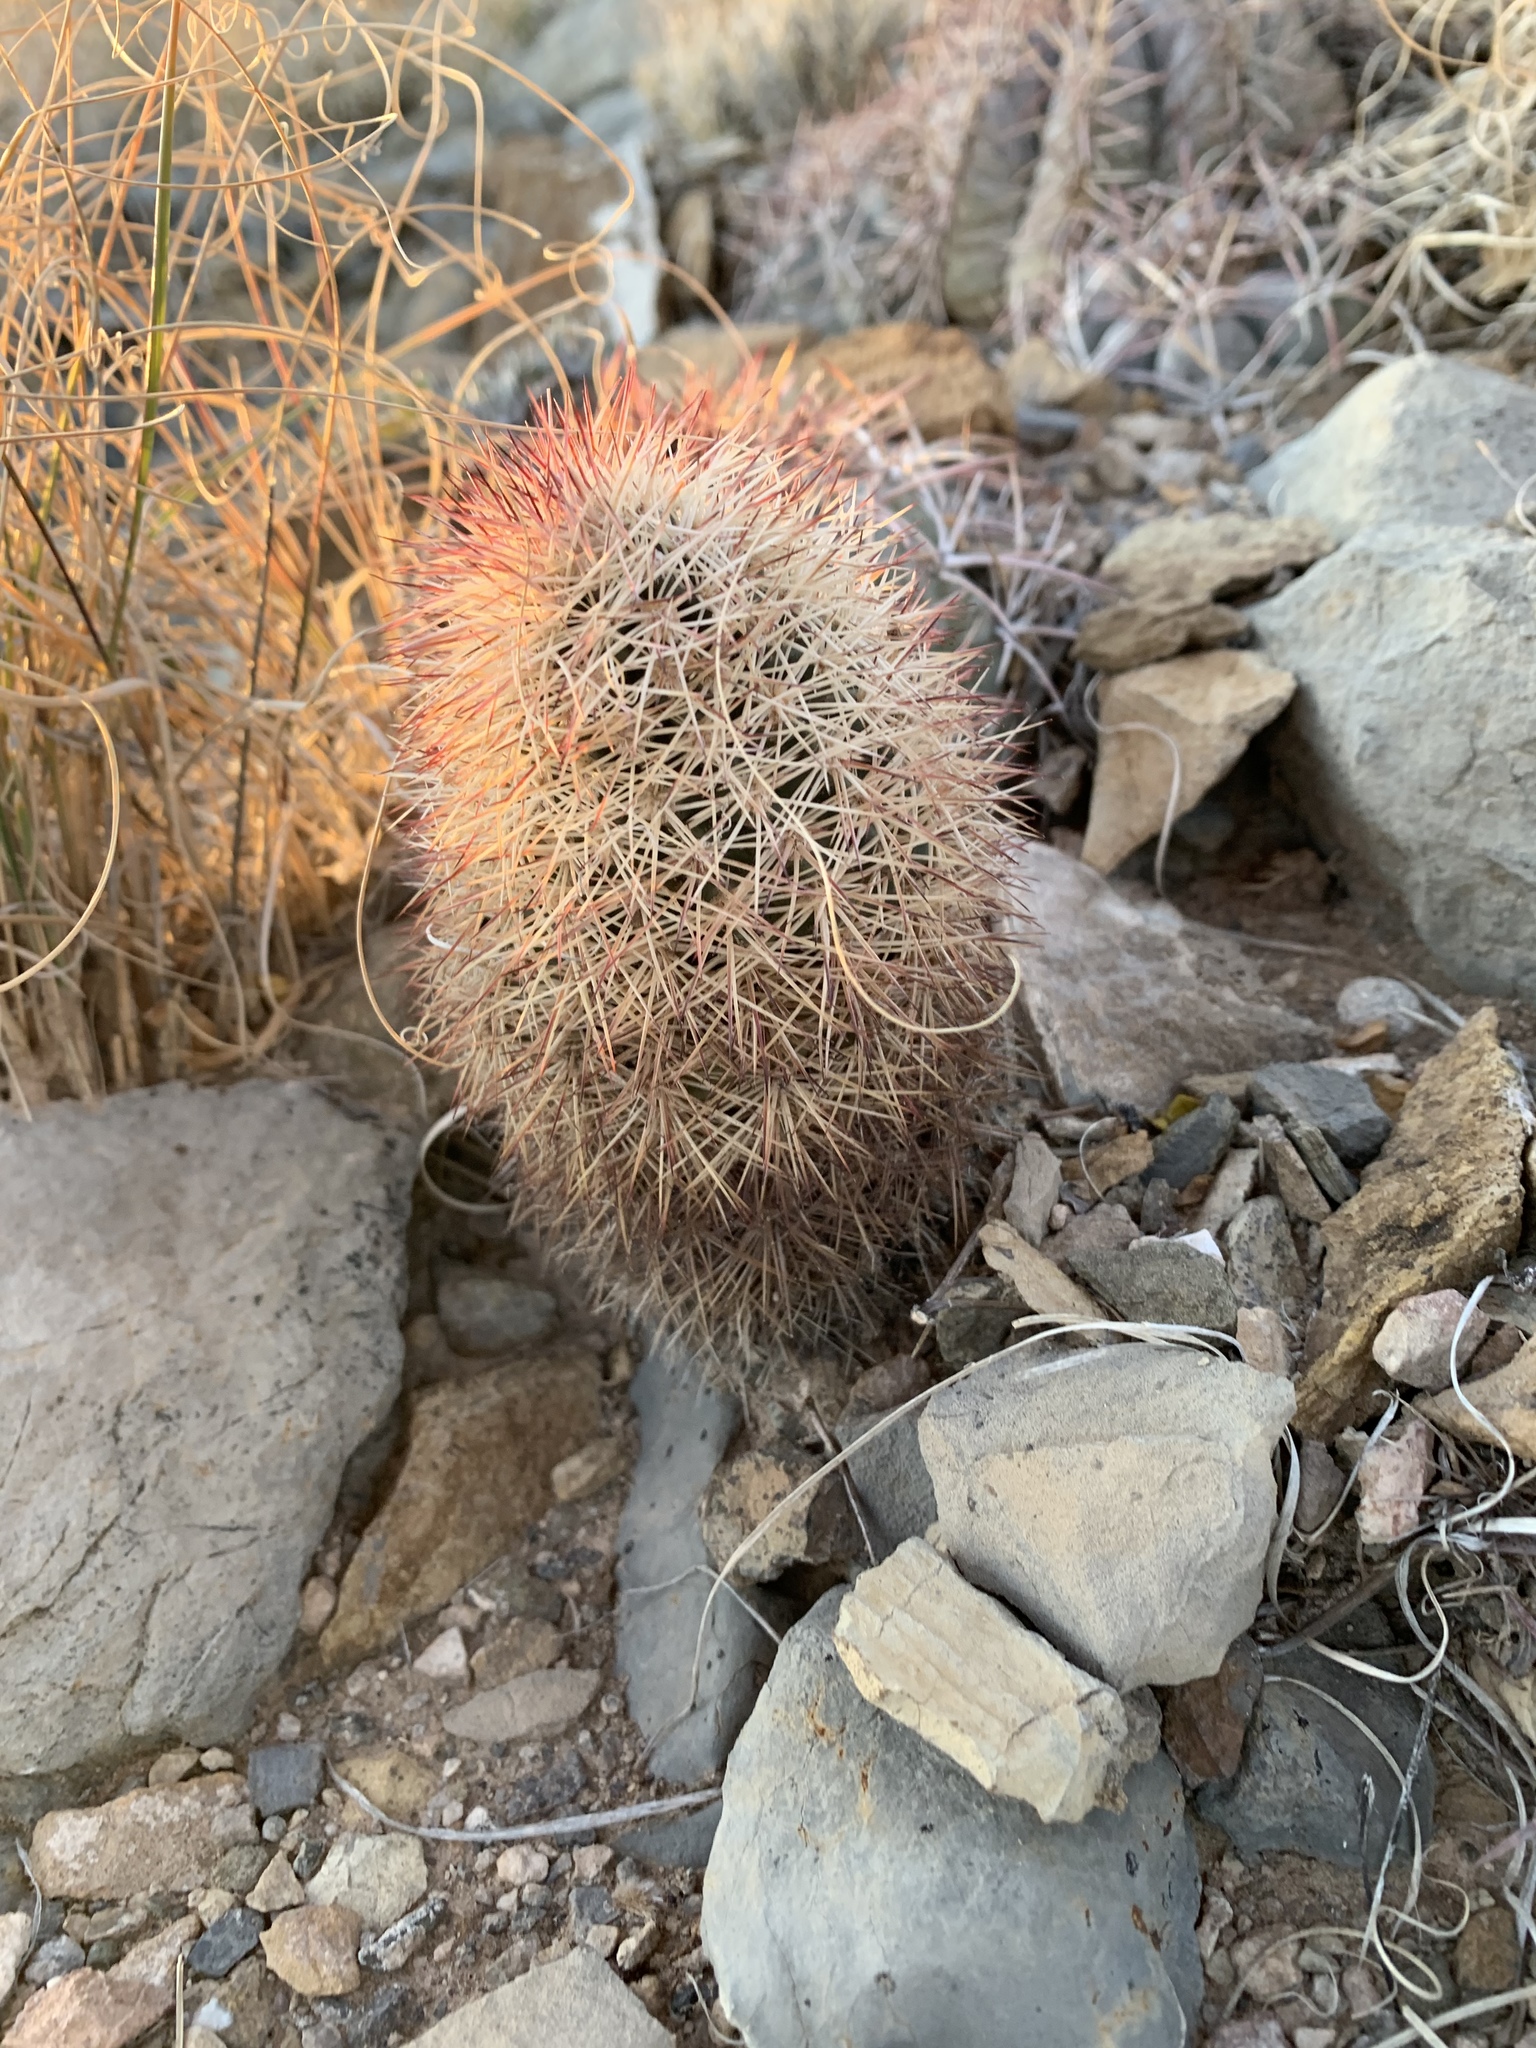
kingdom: Plantae
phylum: Tracheophyta
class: Magnoliopsida
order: Caryophyllales
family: Cactaceae
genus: Echinocereus
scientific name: Echinocereus dasyacanthus
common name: Spiny hedgehog cactus
